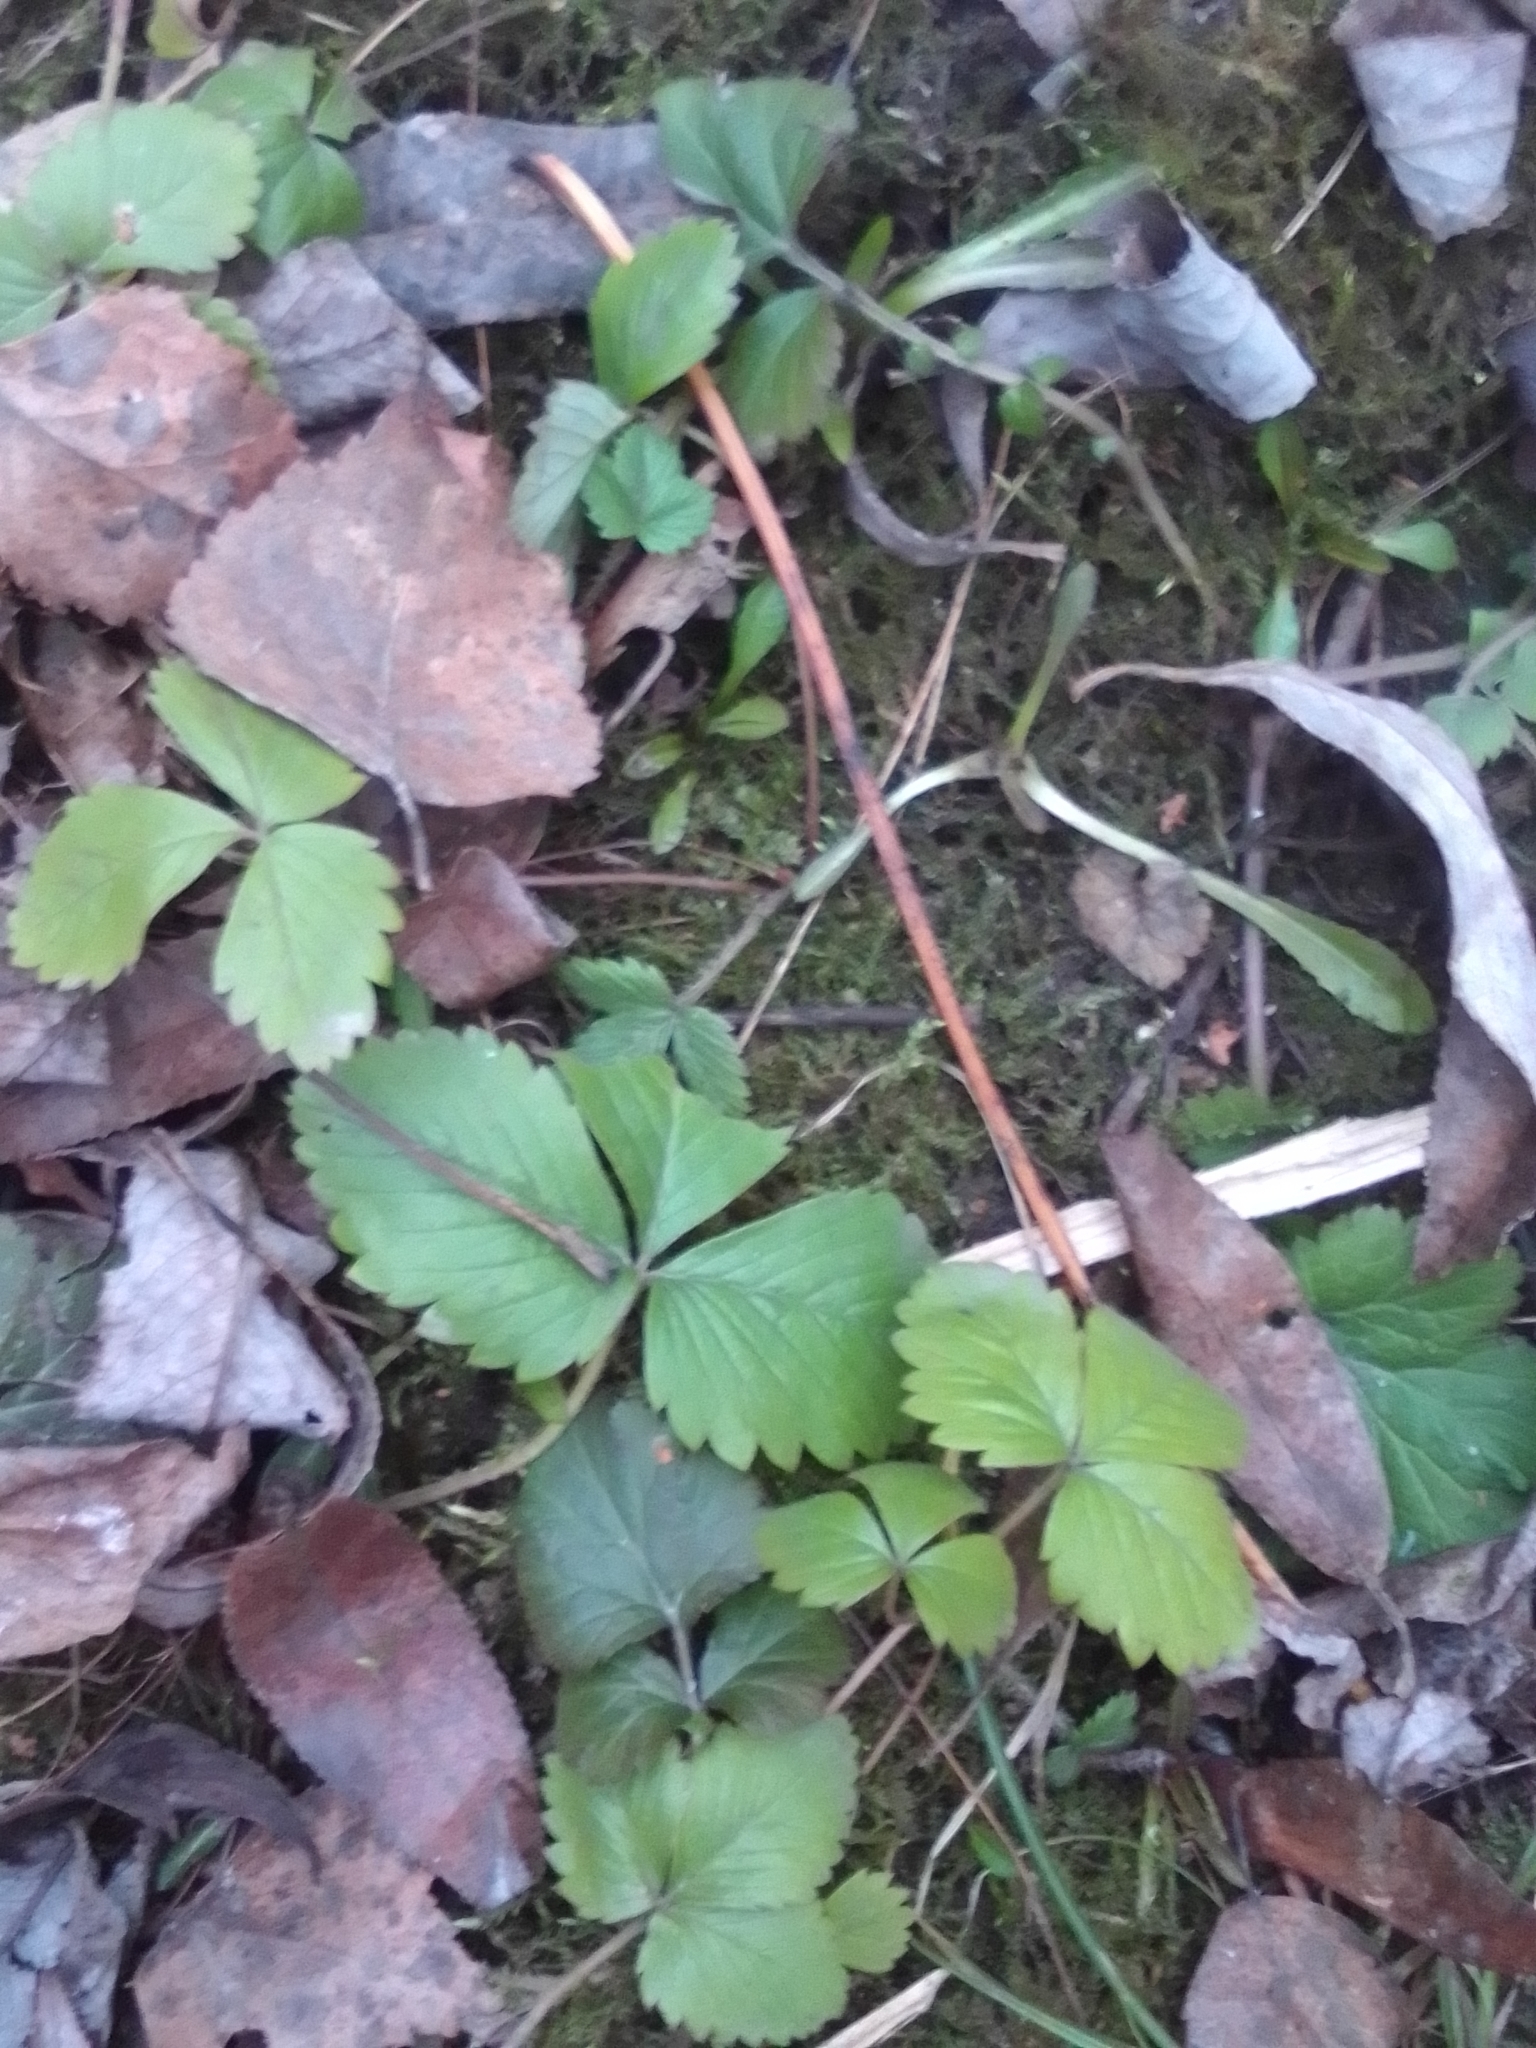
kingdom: Plantae
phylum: Tracheophyta
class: Magnoliopsida
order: Rosales
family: Rosaceae
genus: Fragaria
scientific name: Fragaria vesca
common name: Wild strawberry
